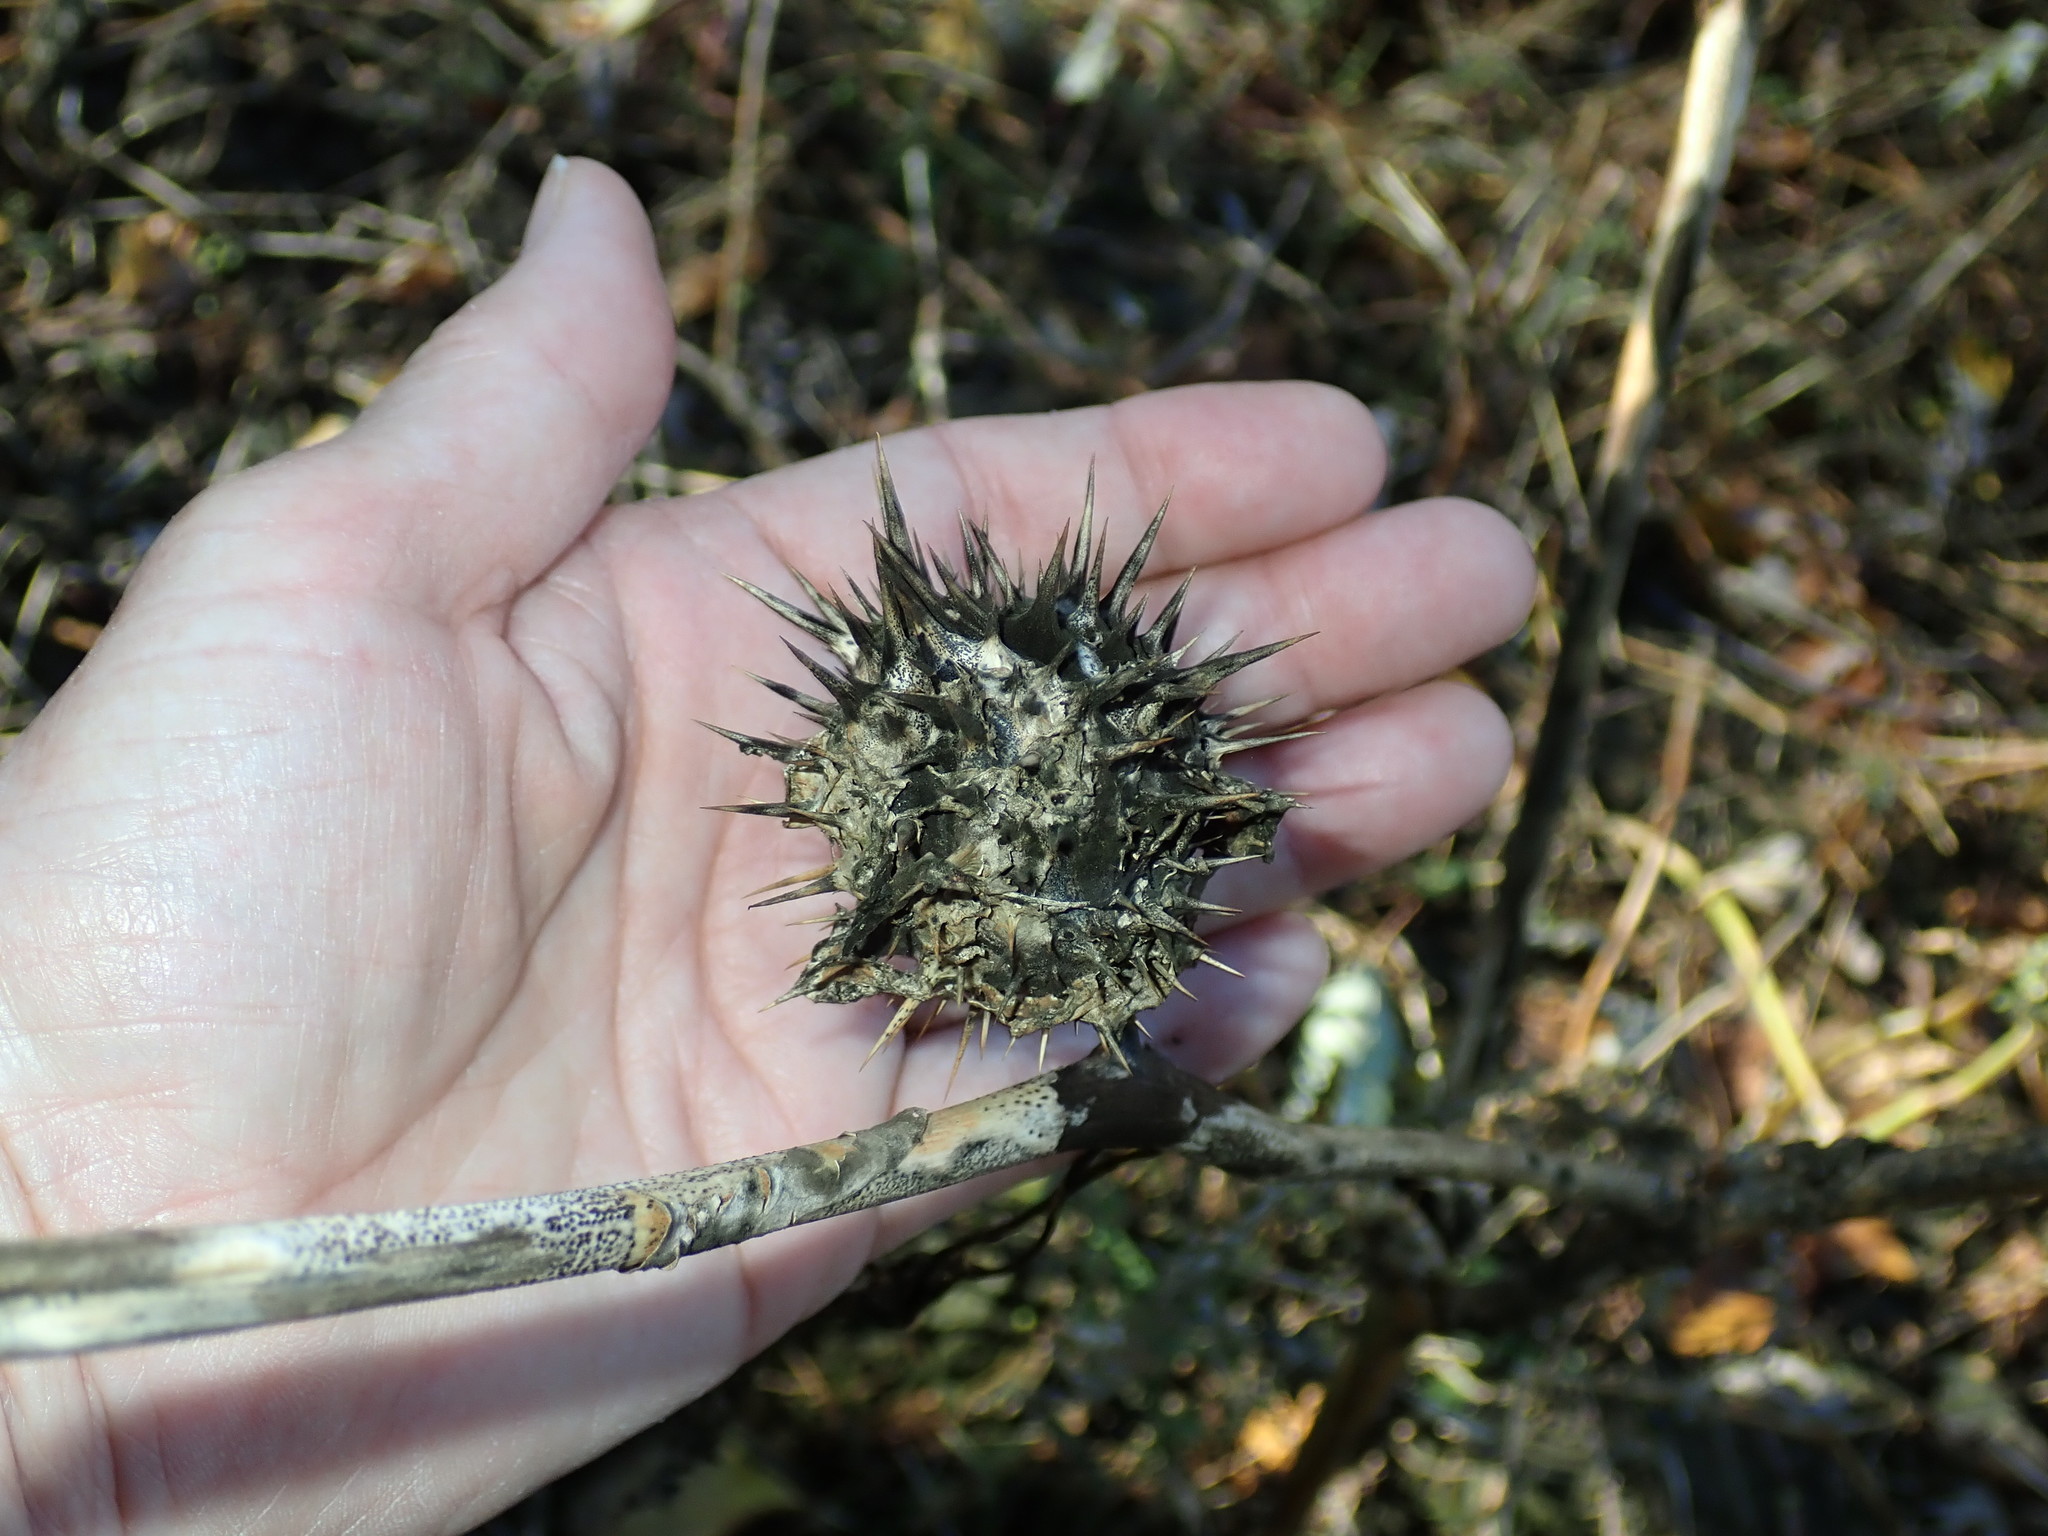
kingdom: Plantae
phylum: Tracheophyta
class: Magnoliopsida
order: Solanales
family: Solanaceae
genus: Datura
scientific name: Datura stramonium
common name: Thorn-apple
